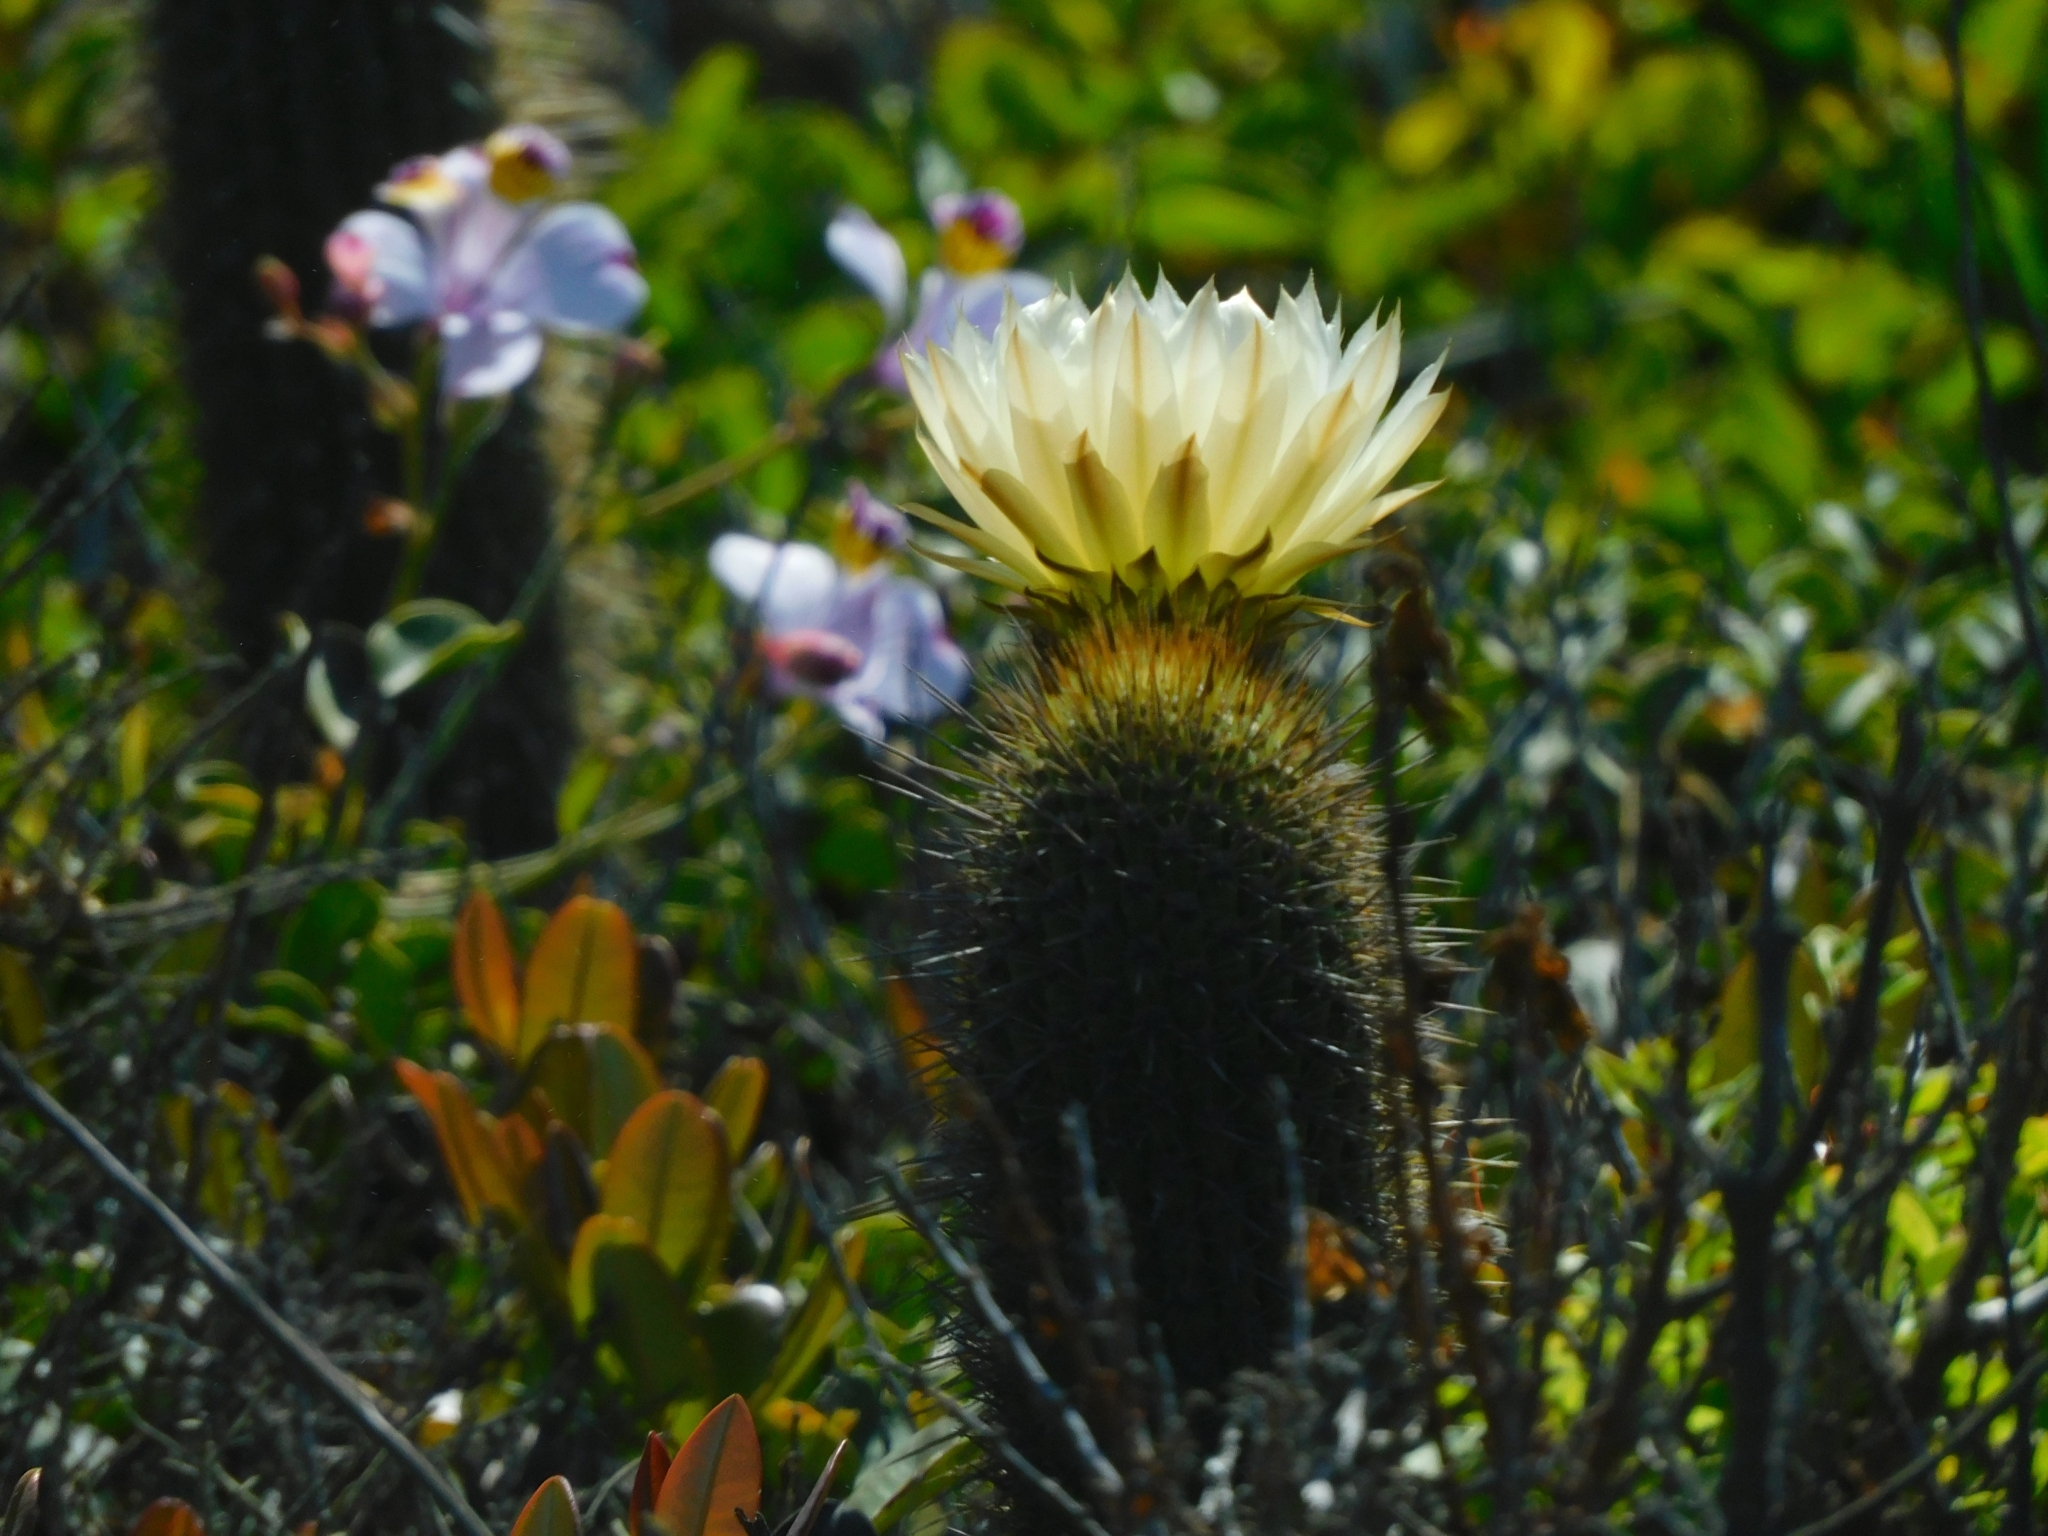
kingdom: Plantae
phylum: Tracheophyta
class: Magnoliopsida
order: Caryophyllales
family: Cactaceae
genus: Leucostele
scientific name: Leucostele litoralis
